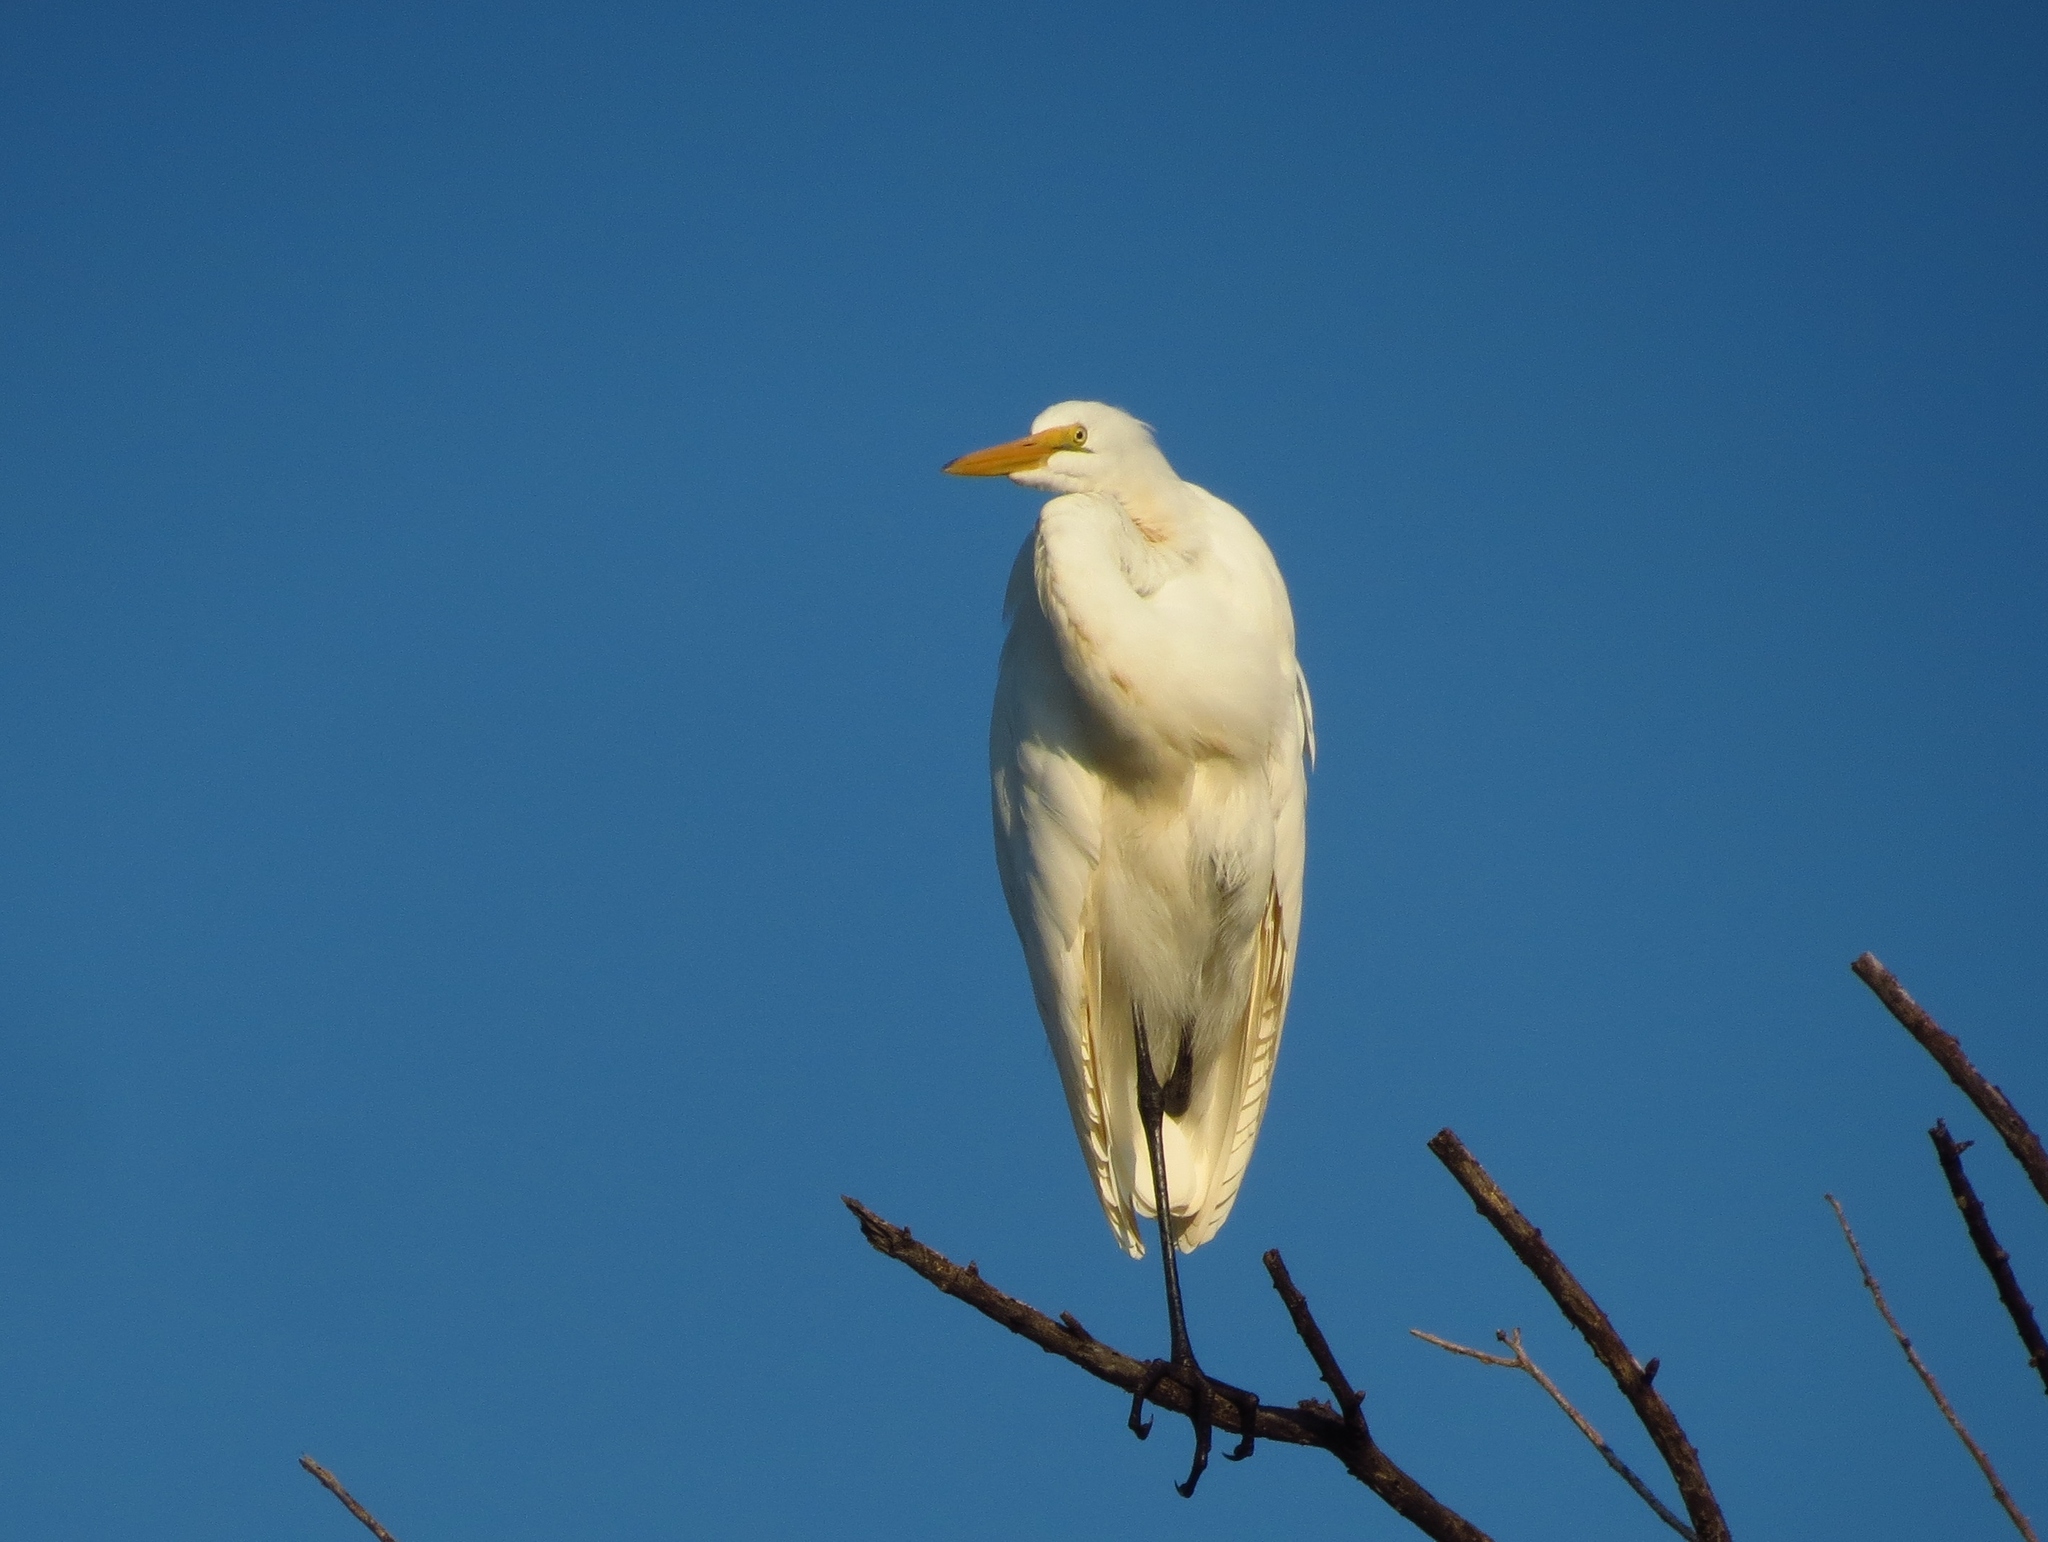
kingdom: Animalia
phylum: Chordata
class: Aves
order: Pelecaniformes
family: Ardeidae
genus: Ardea
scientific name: Ardea alba
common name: Great egret
